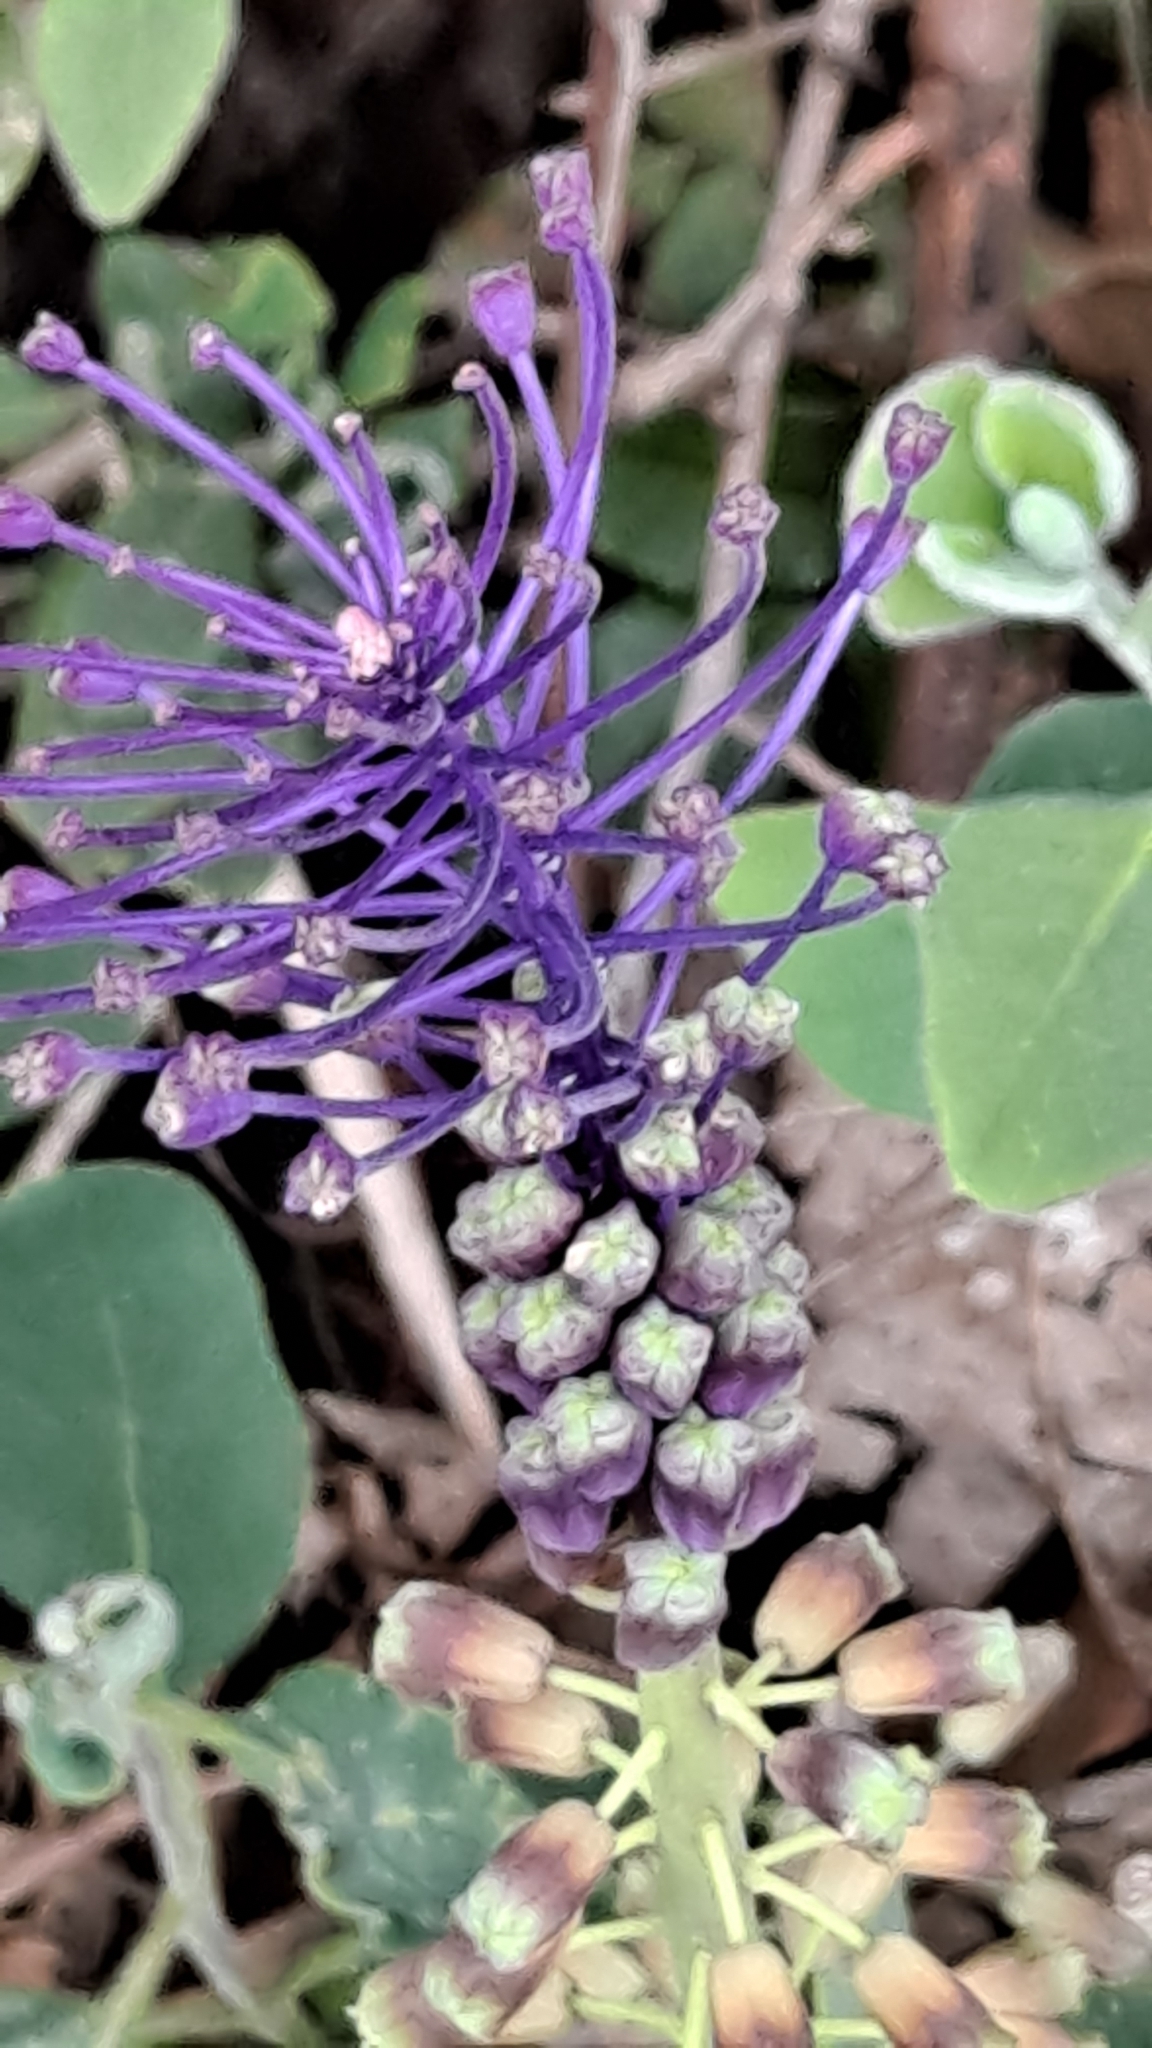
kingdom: Plantae
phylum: Tracheophyta
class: Liliopsida
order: Asparagales
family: Asparagaceae
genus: Muscari
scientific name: Muscari comosum
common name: Tassel hyacinth
